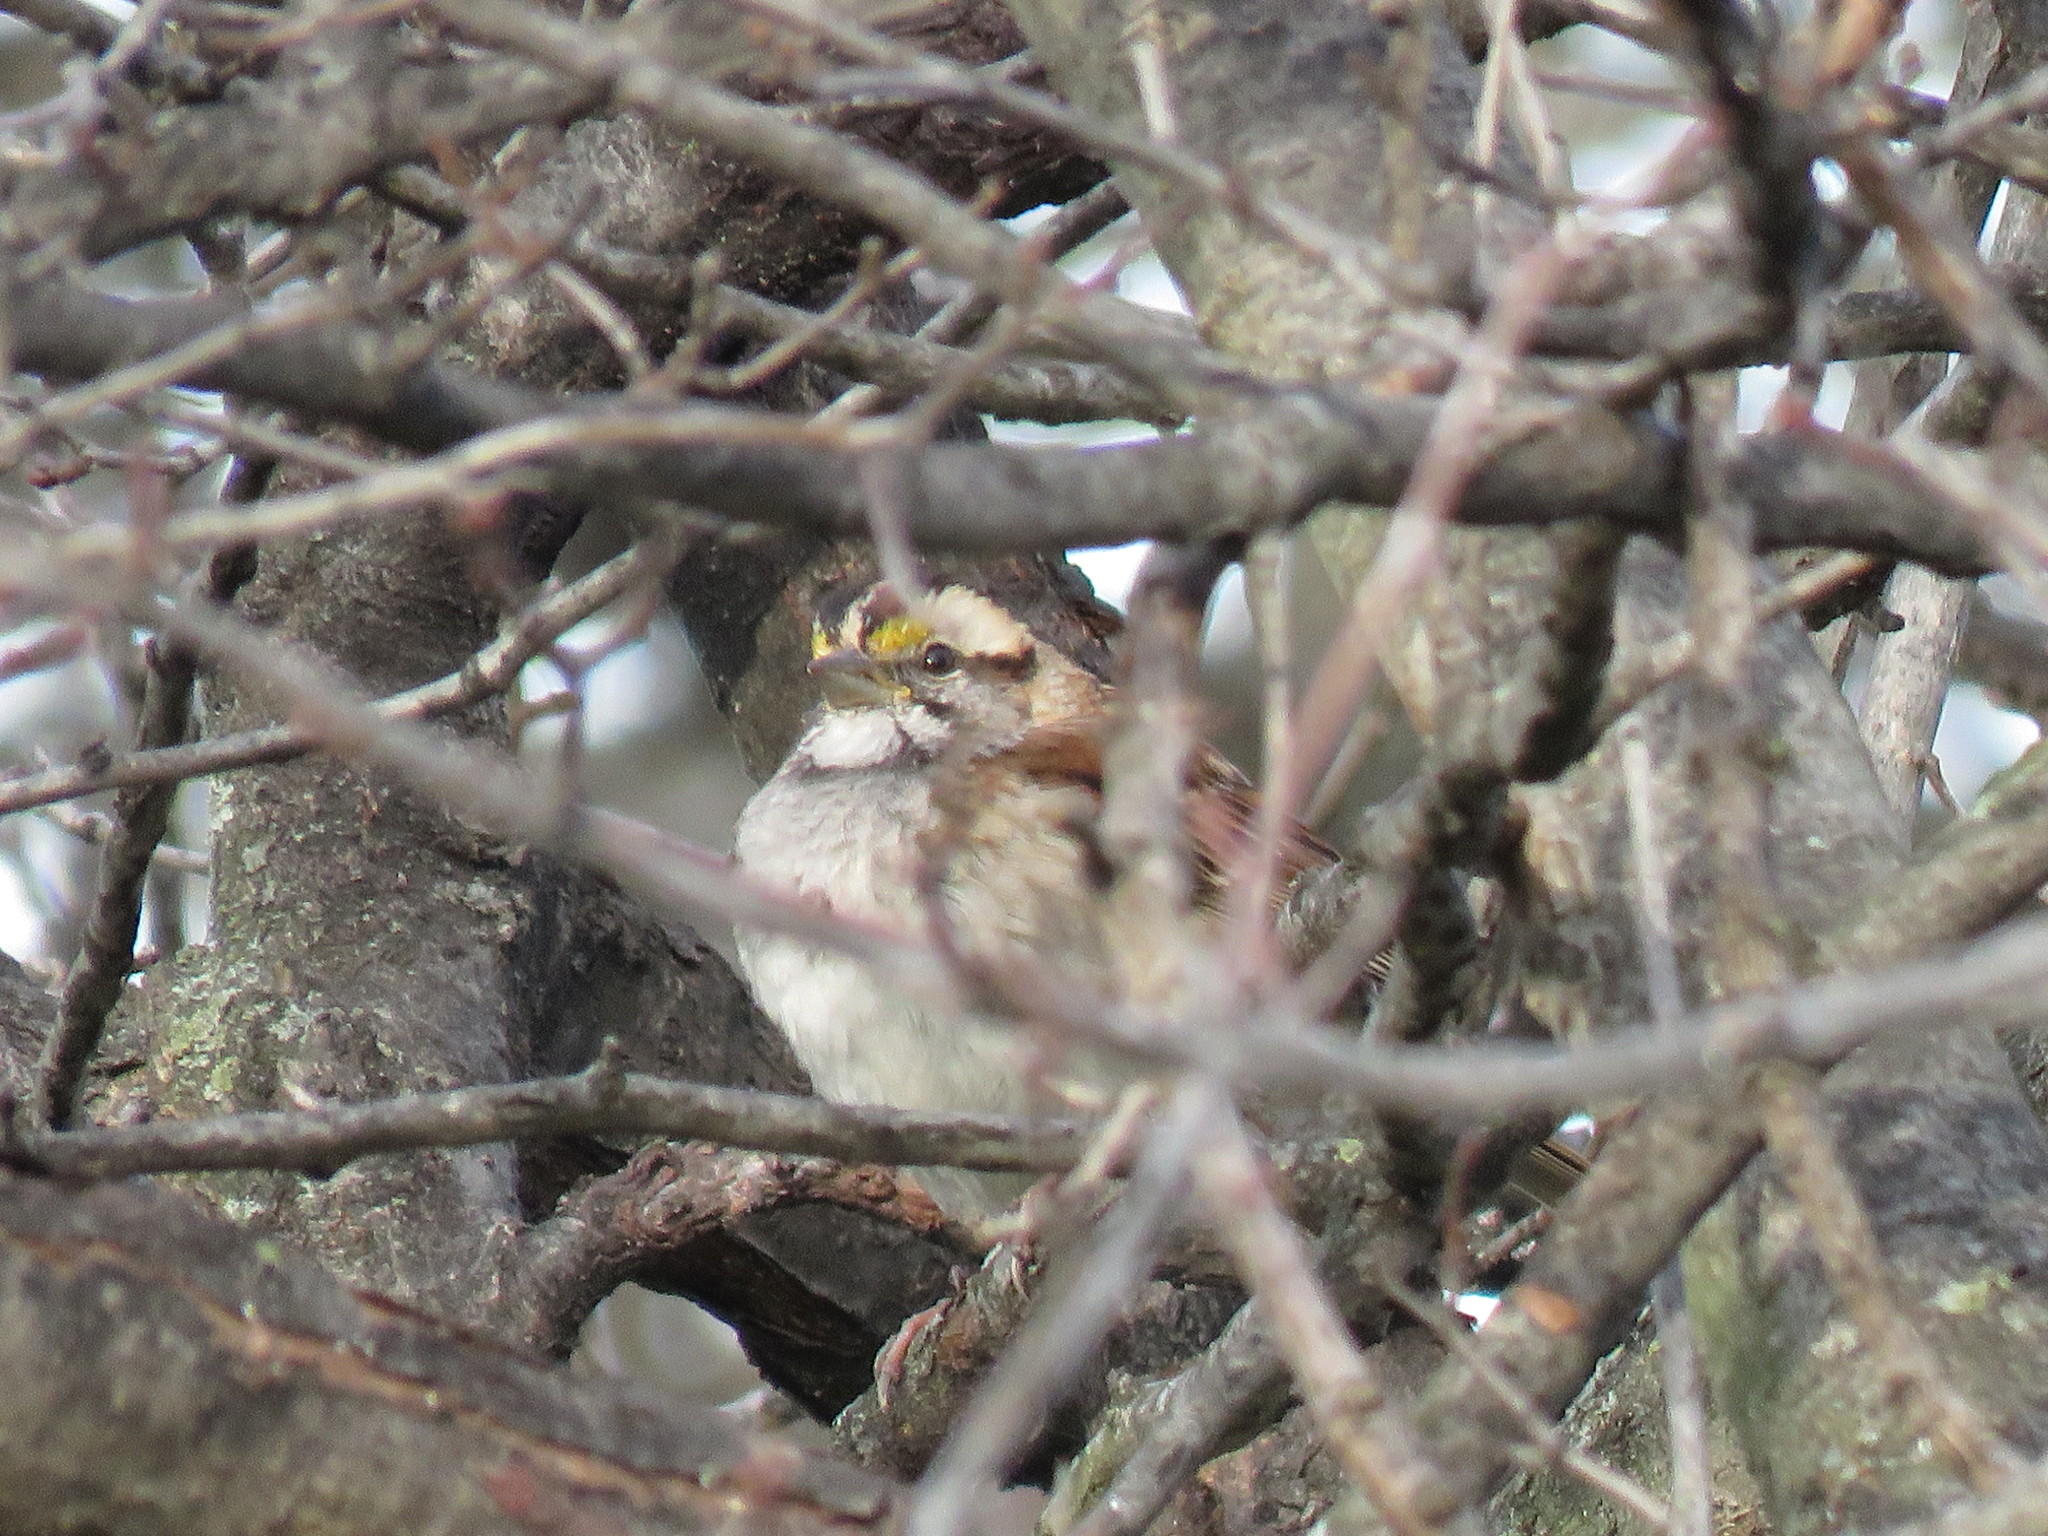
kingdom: Animalia
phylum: Chordata
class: Aves
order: Passeriformes
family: Passerellidae
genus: Zonotrichia
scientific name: Zonotrichia albicollis
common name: White-throated sparrow
